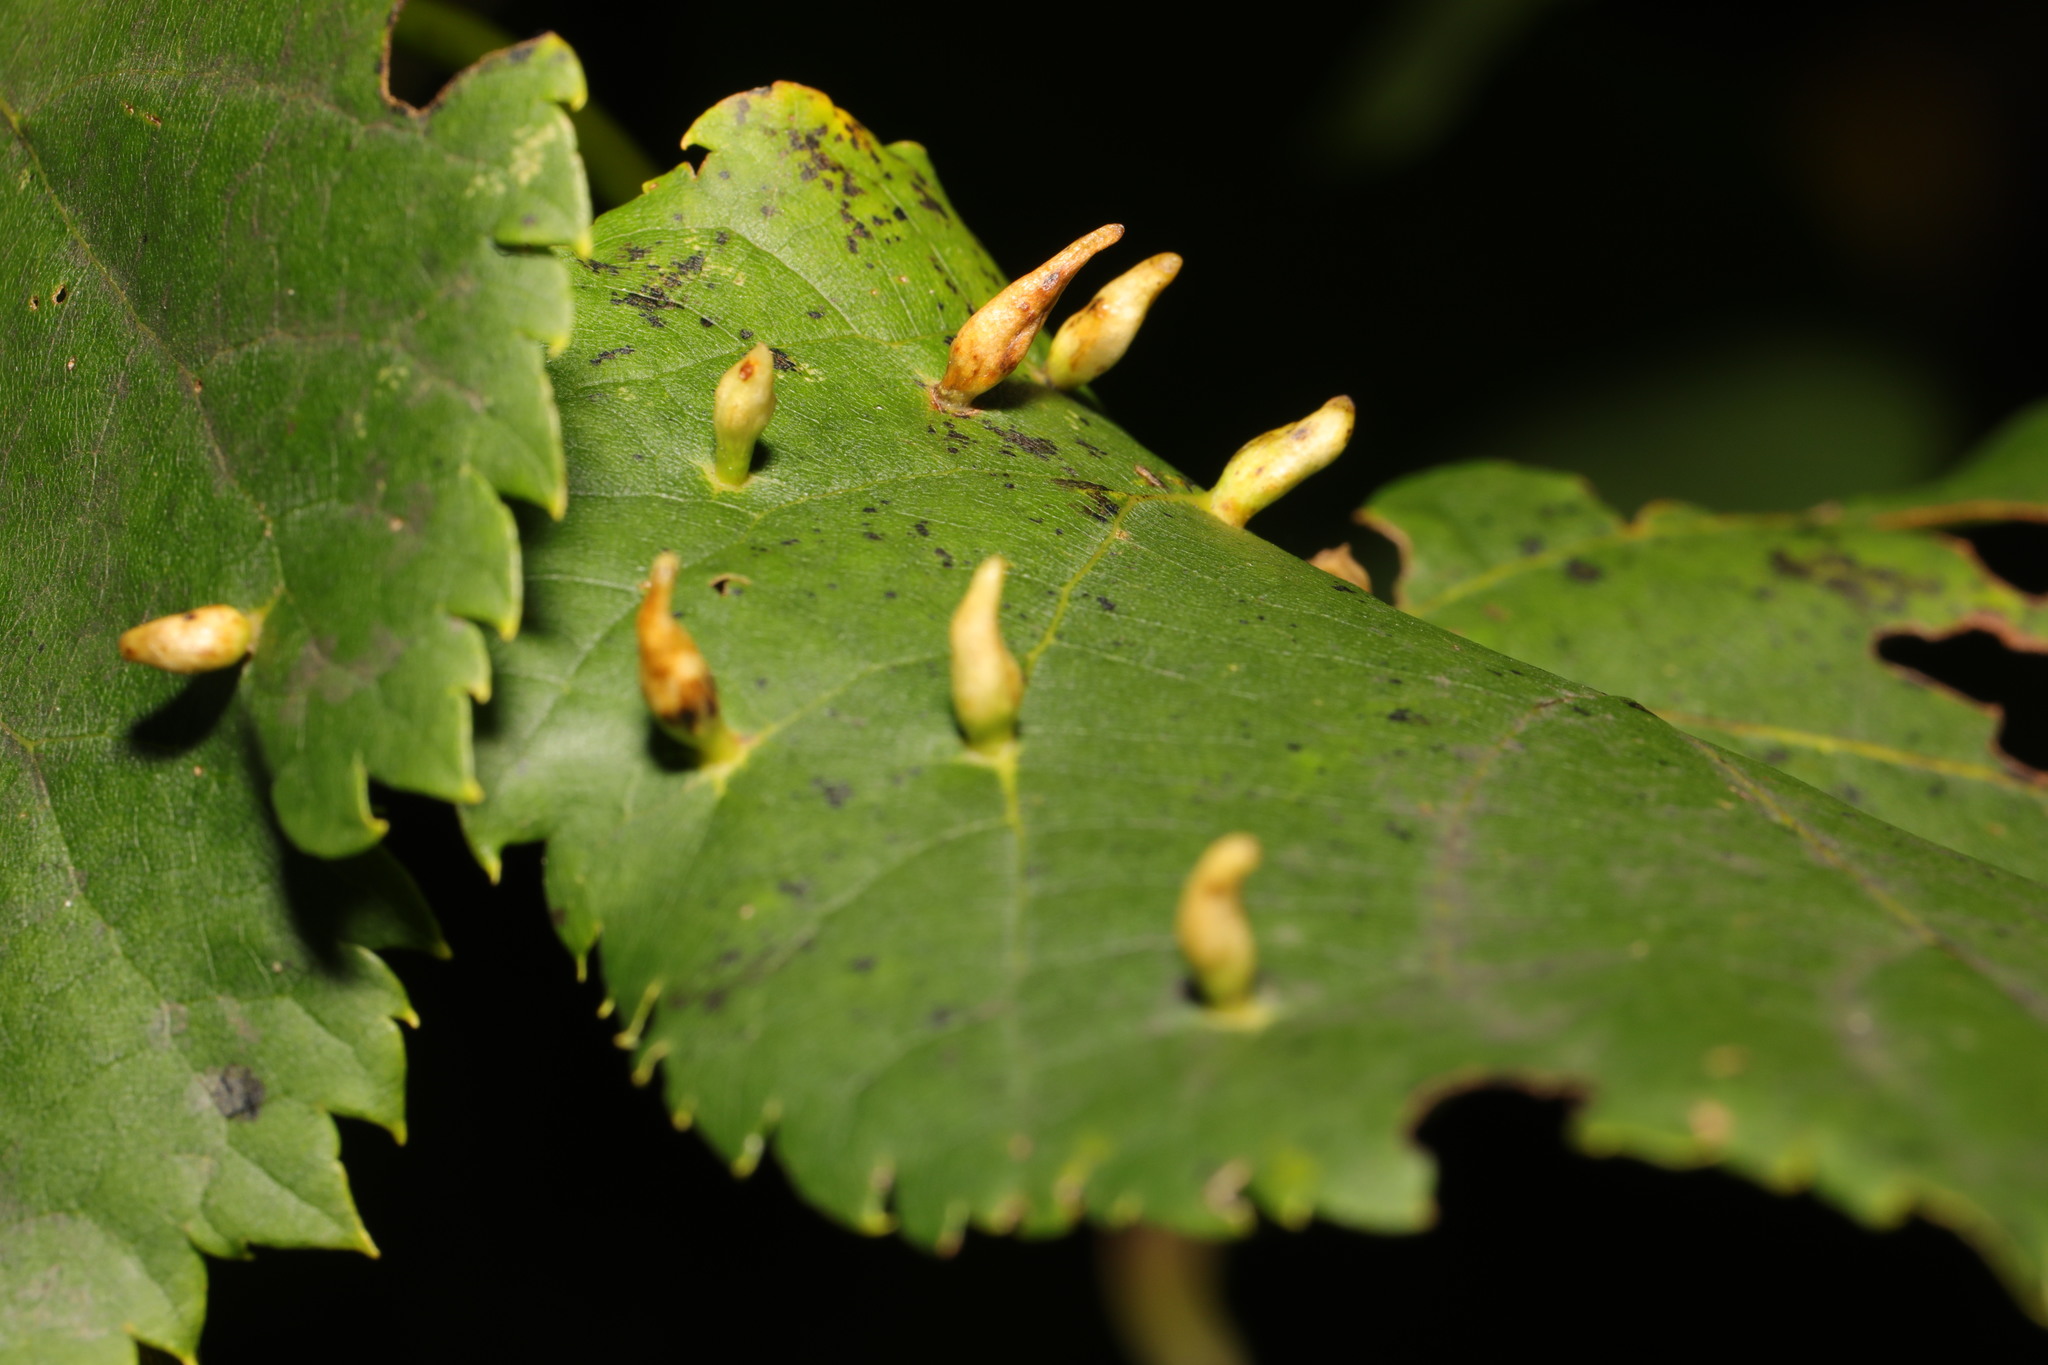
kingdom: Animalia
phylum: Arthropoda
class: Arachnida
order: Trombidiformes
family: Eriophyidae
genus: Eriophyes
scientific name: Eriophyes tiliae
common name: Red nail gall mite
